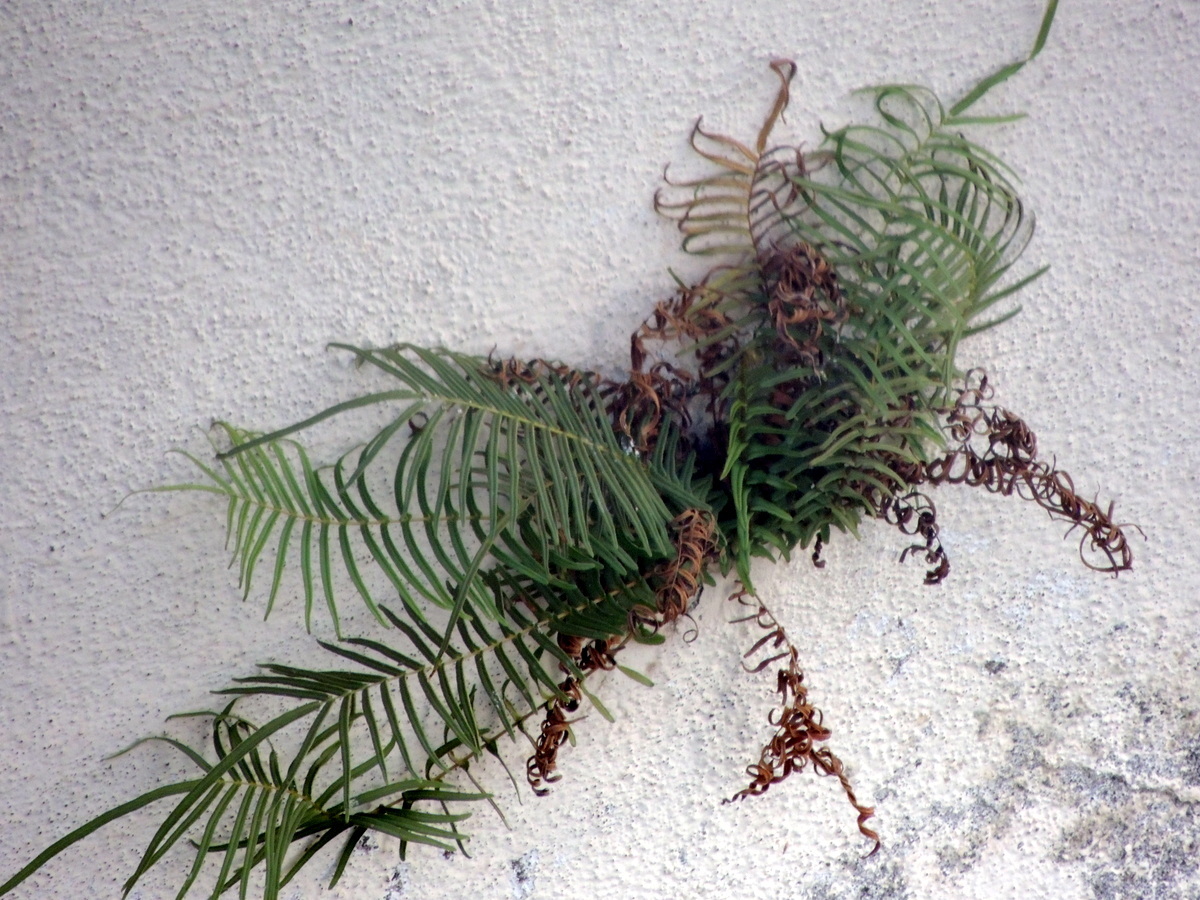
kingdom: Plantae
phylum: Tracheophyta
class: Polypodiopsida
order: Polypodiales
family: Pteridaceae
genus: Pteris
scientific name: Pteris vittata
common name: Ladder brake
